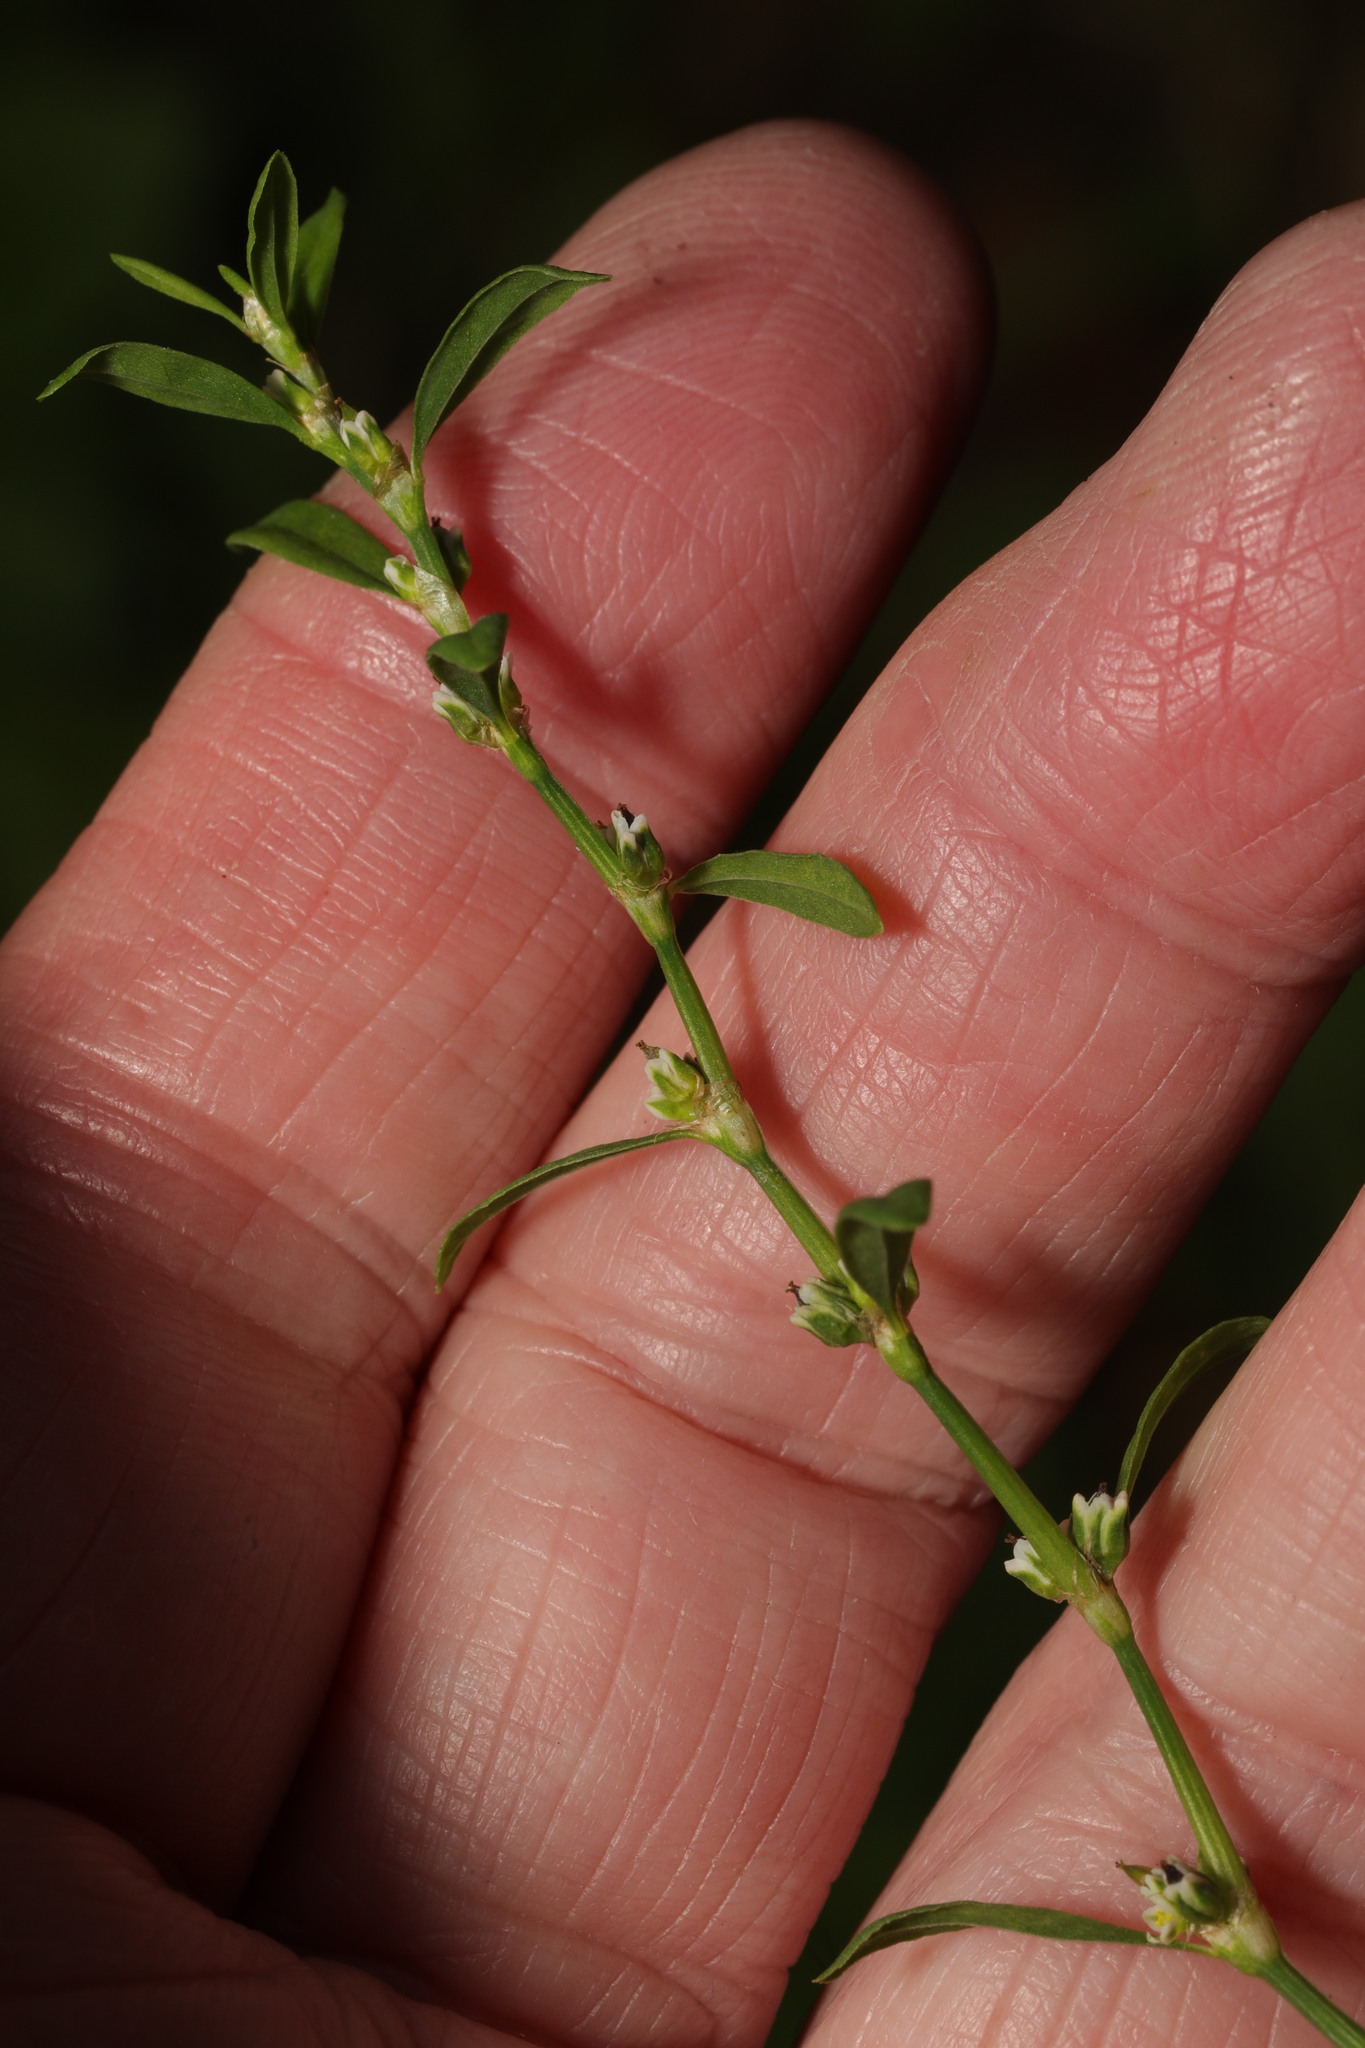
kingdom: Plantae
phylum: Tracheophyta
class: Magnoliopsida
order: Caryophyllales
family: Polygonaceae
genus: Polygonum
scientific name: Polygonum aviculare
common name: Prostrate knotweed
